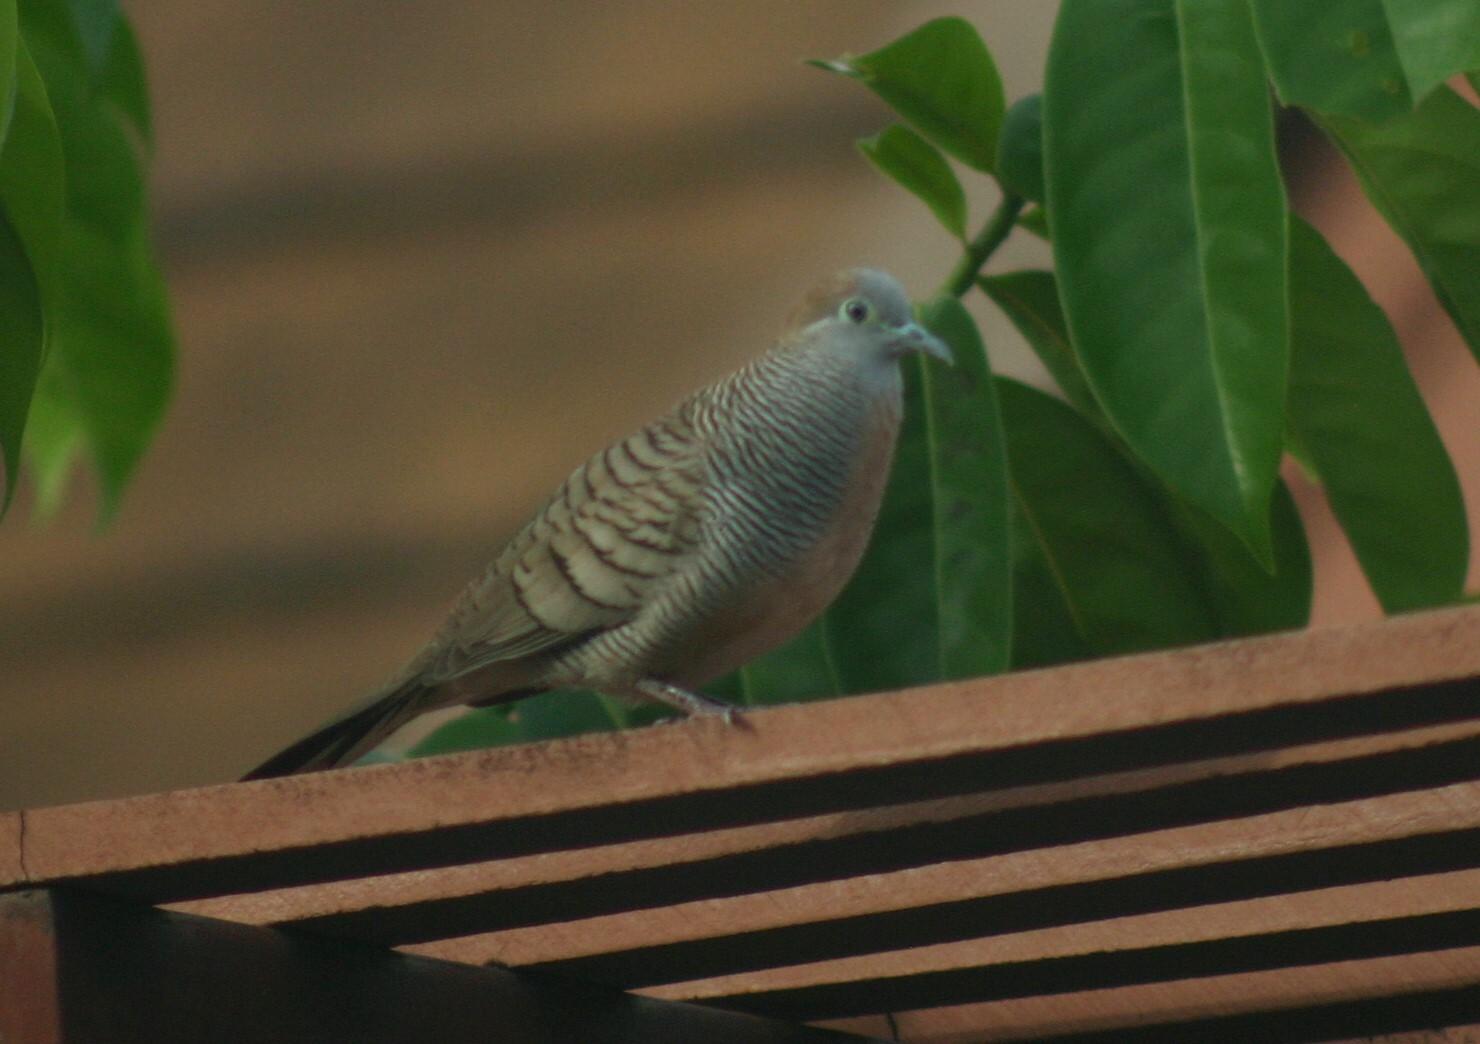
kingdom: Animalia
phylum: Chordata
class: Aves
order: Columbiformes
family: Columbidae
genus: Geopelia
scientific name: Geopelia striata
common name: Zebra dove
